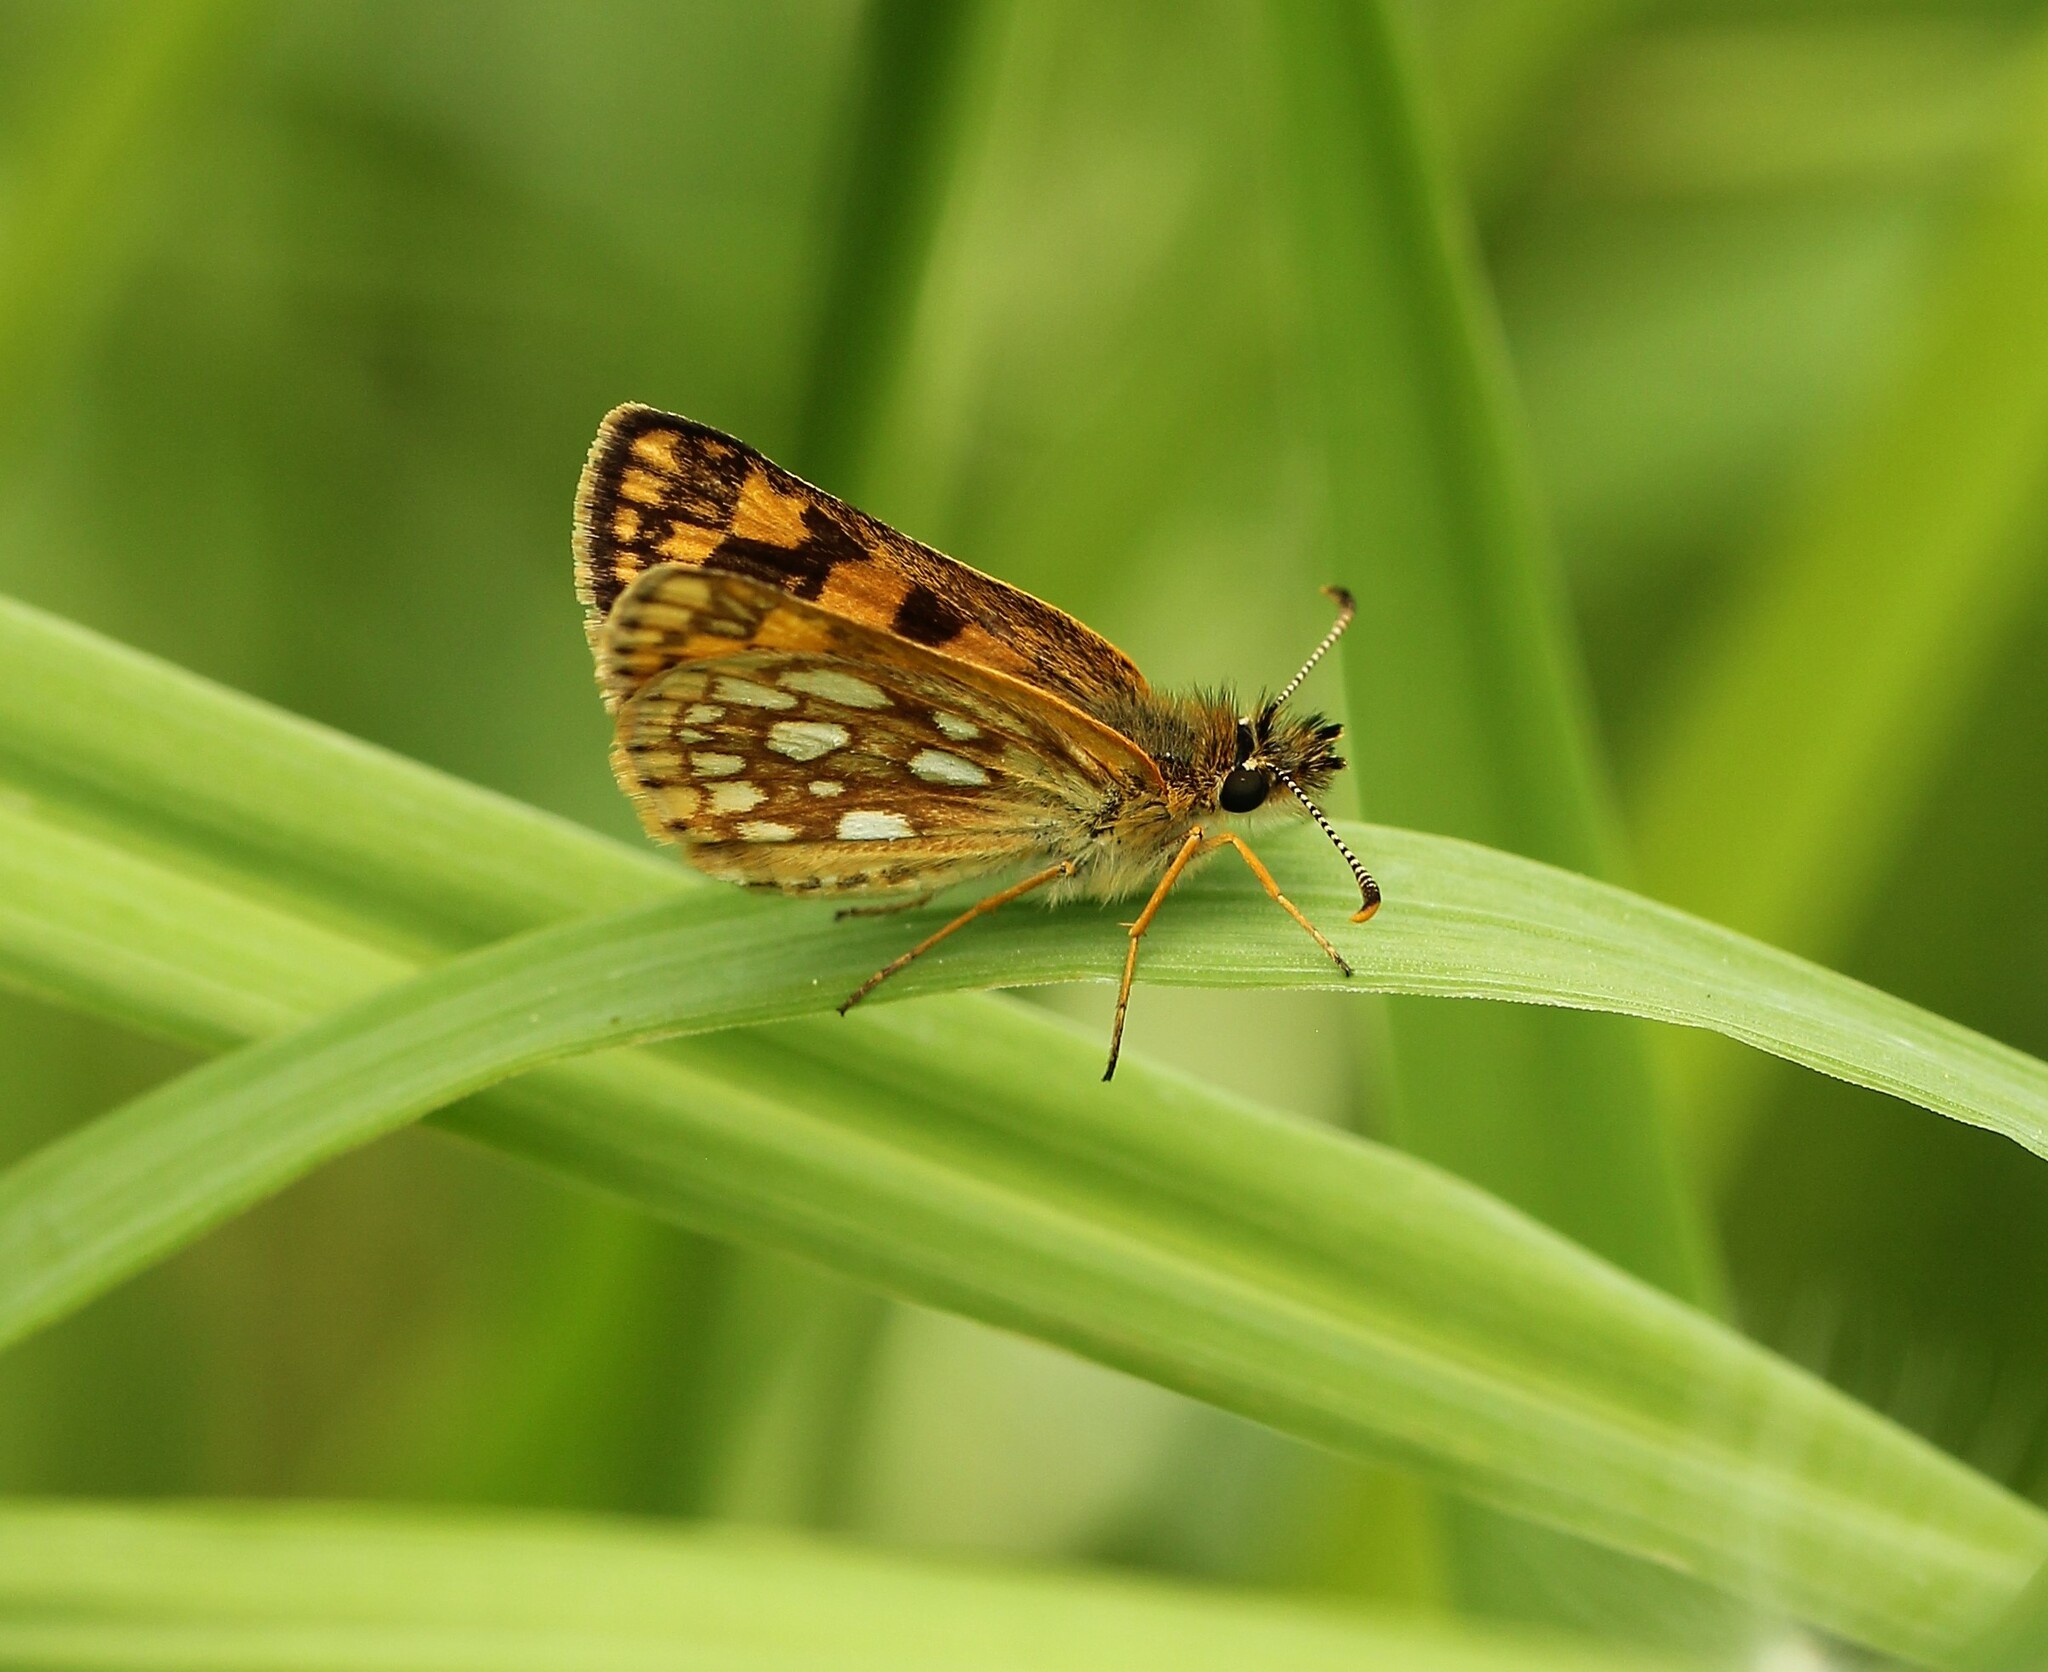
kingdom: Animalia
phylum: Arthropoda
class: Insecta
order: Lepidoptera
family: Hesperiidae
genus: Carterocephalus
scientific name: Carterocephalus mandan
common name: Arctic skipperling
